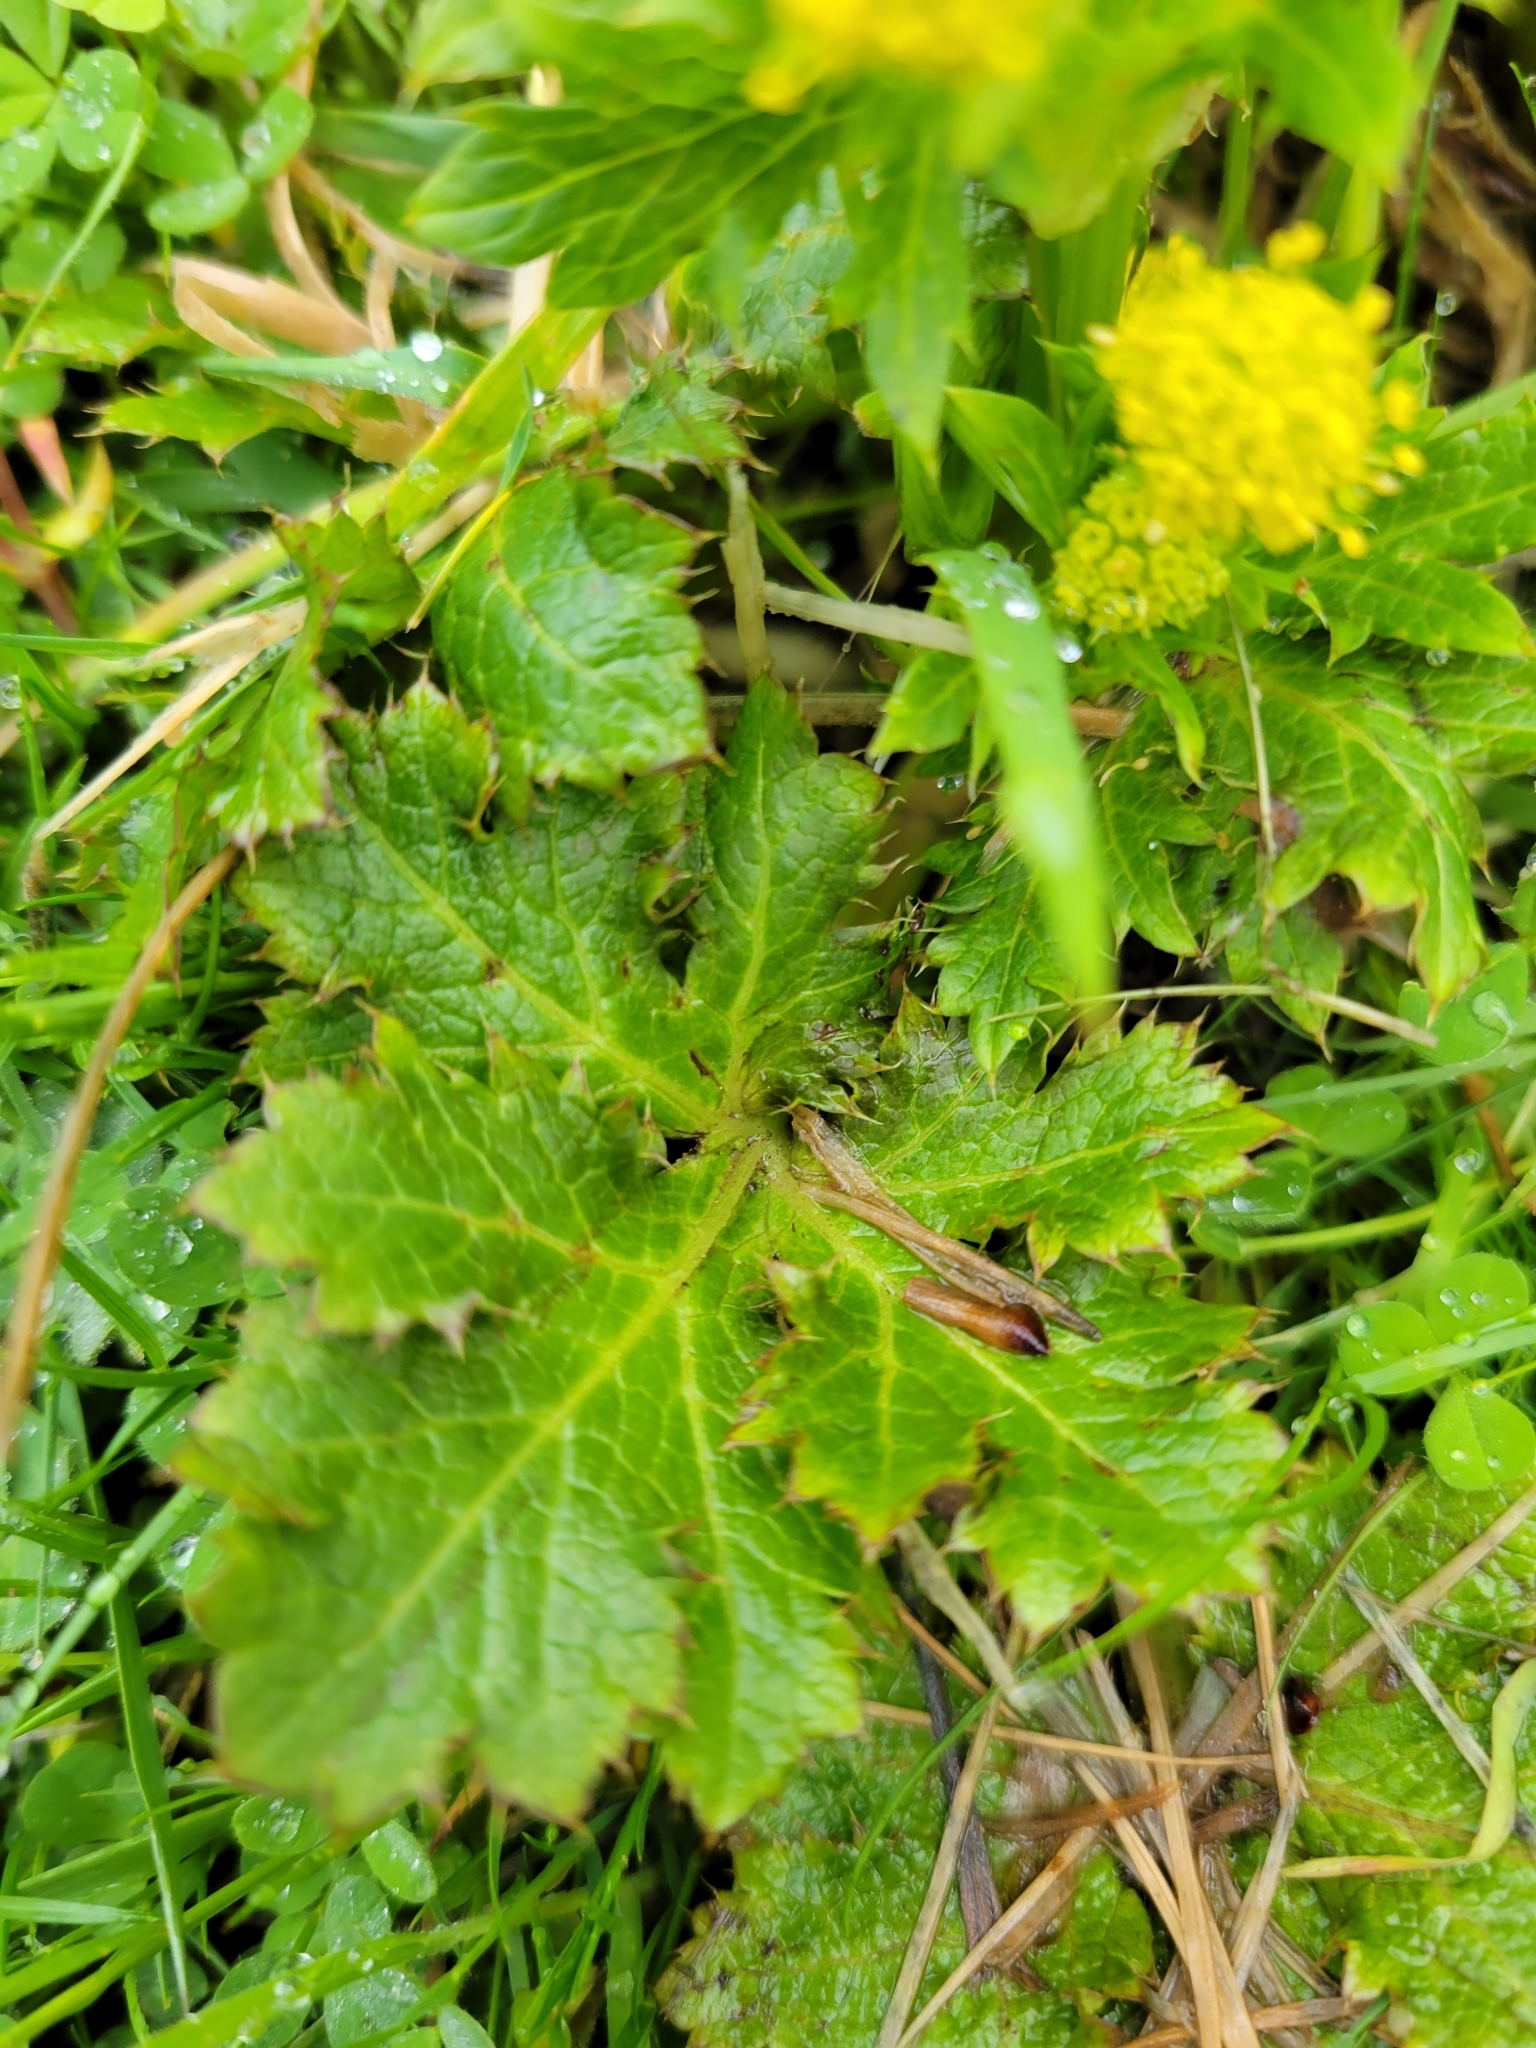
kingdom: Plantae
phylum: Tracheophyta
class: Magnoliopsida
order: Apiales
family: Apiaceae
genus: Sanicula
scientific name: Sanicula crassicaulis
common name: Western snakeroot
